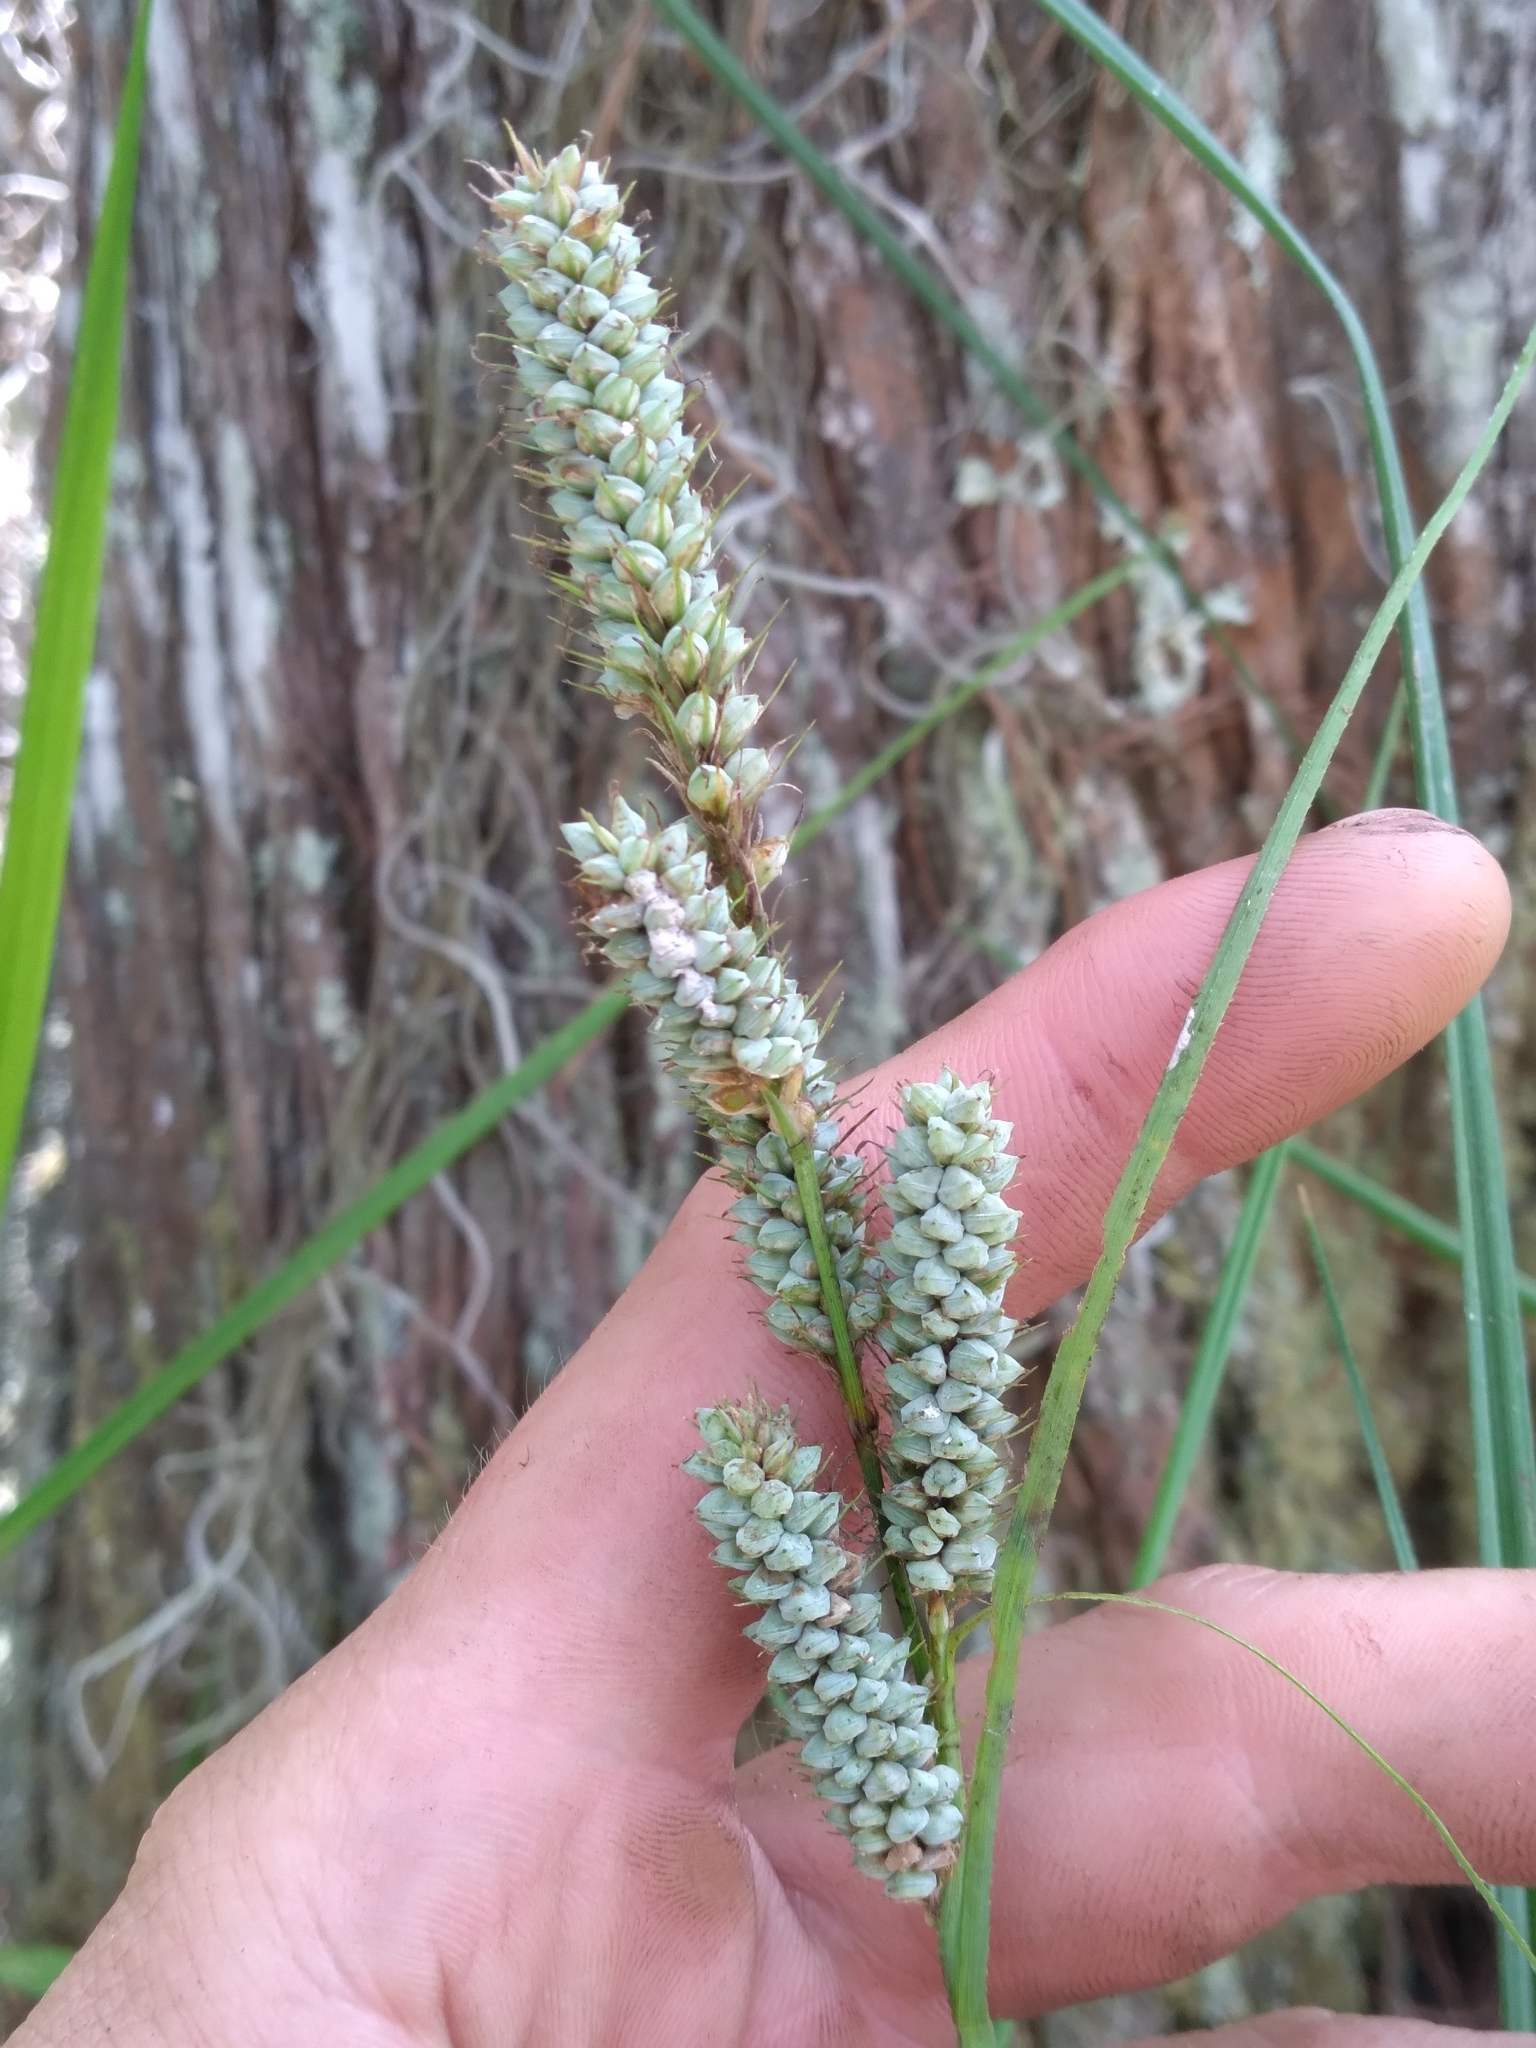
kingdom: Plantae
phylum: Tracheophyta
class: Liliopsida
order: Poales
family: Cyperaceae
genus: Carex
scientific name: Carex verrucosa
